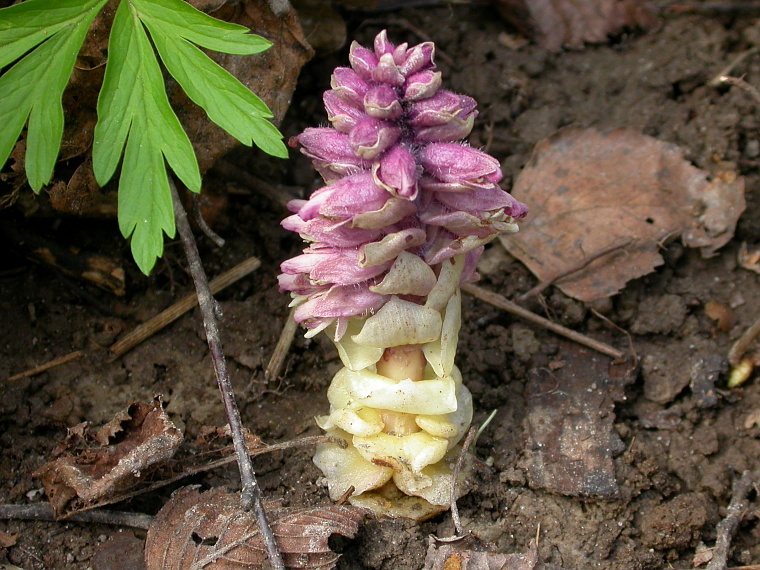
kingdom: Plantae
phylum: Tracheophyta
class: Magnoliopsida
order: Lamiales
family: Orobanchaceae
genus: Lathraea
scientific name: Lathraea squamaria
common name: Toothwort
